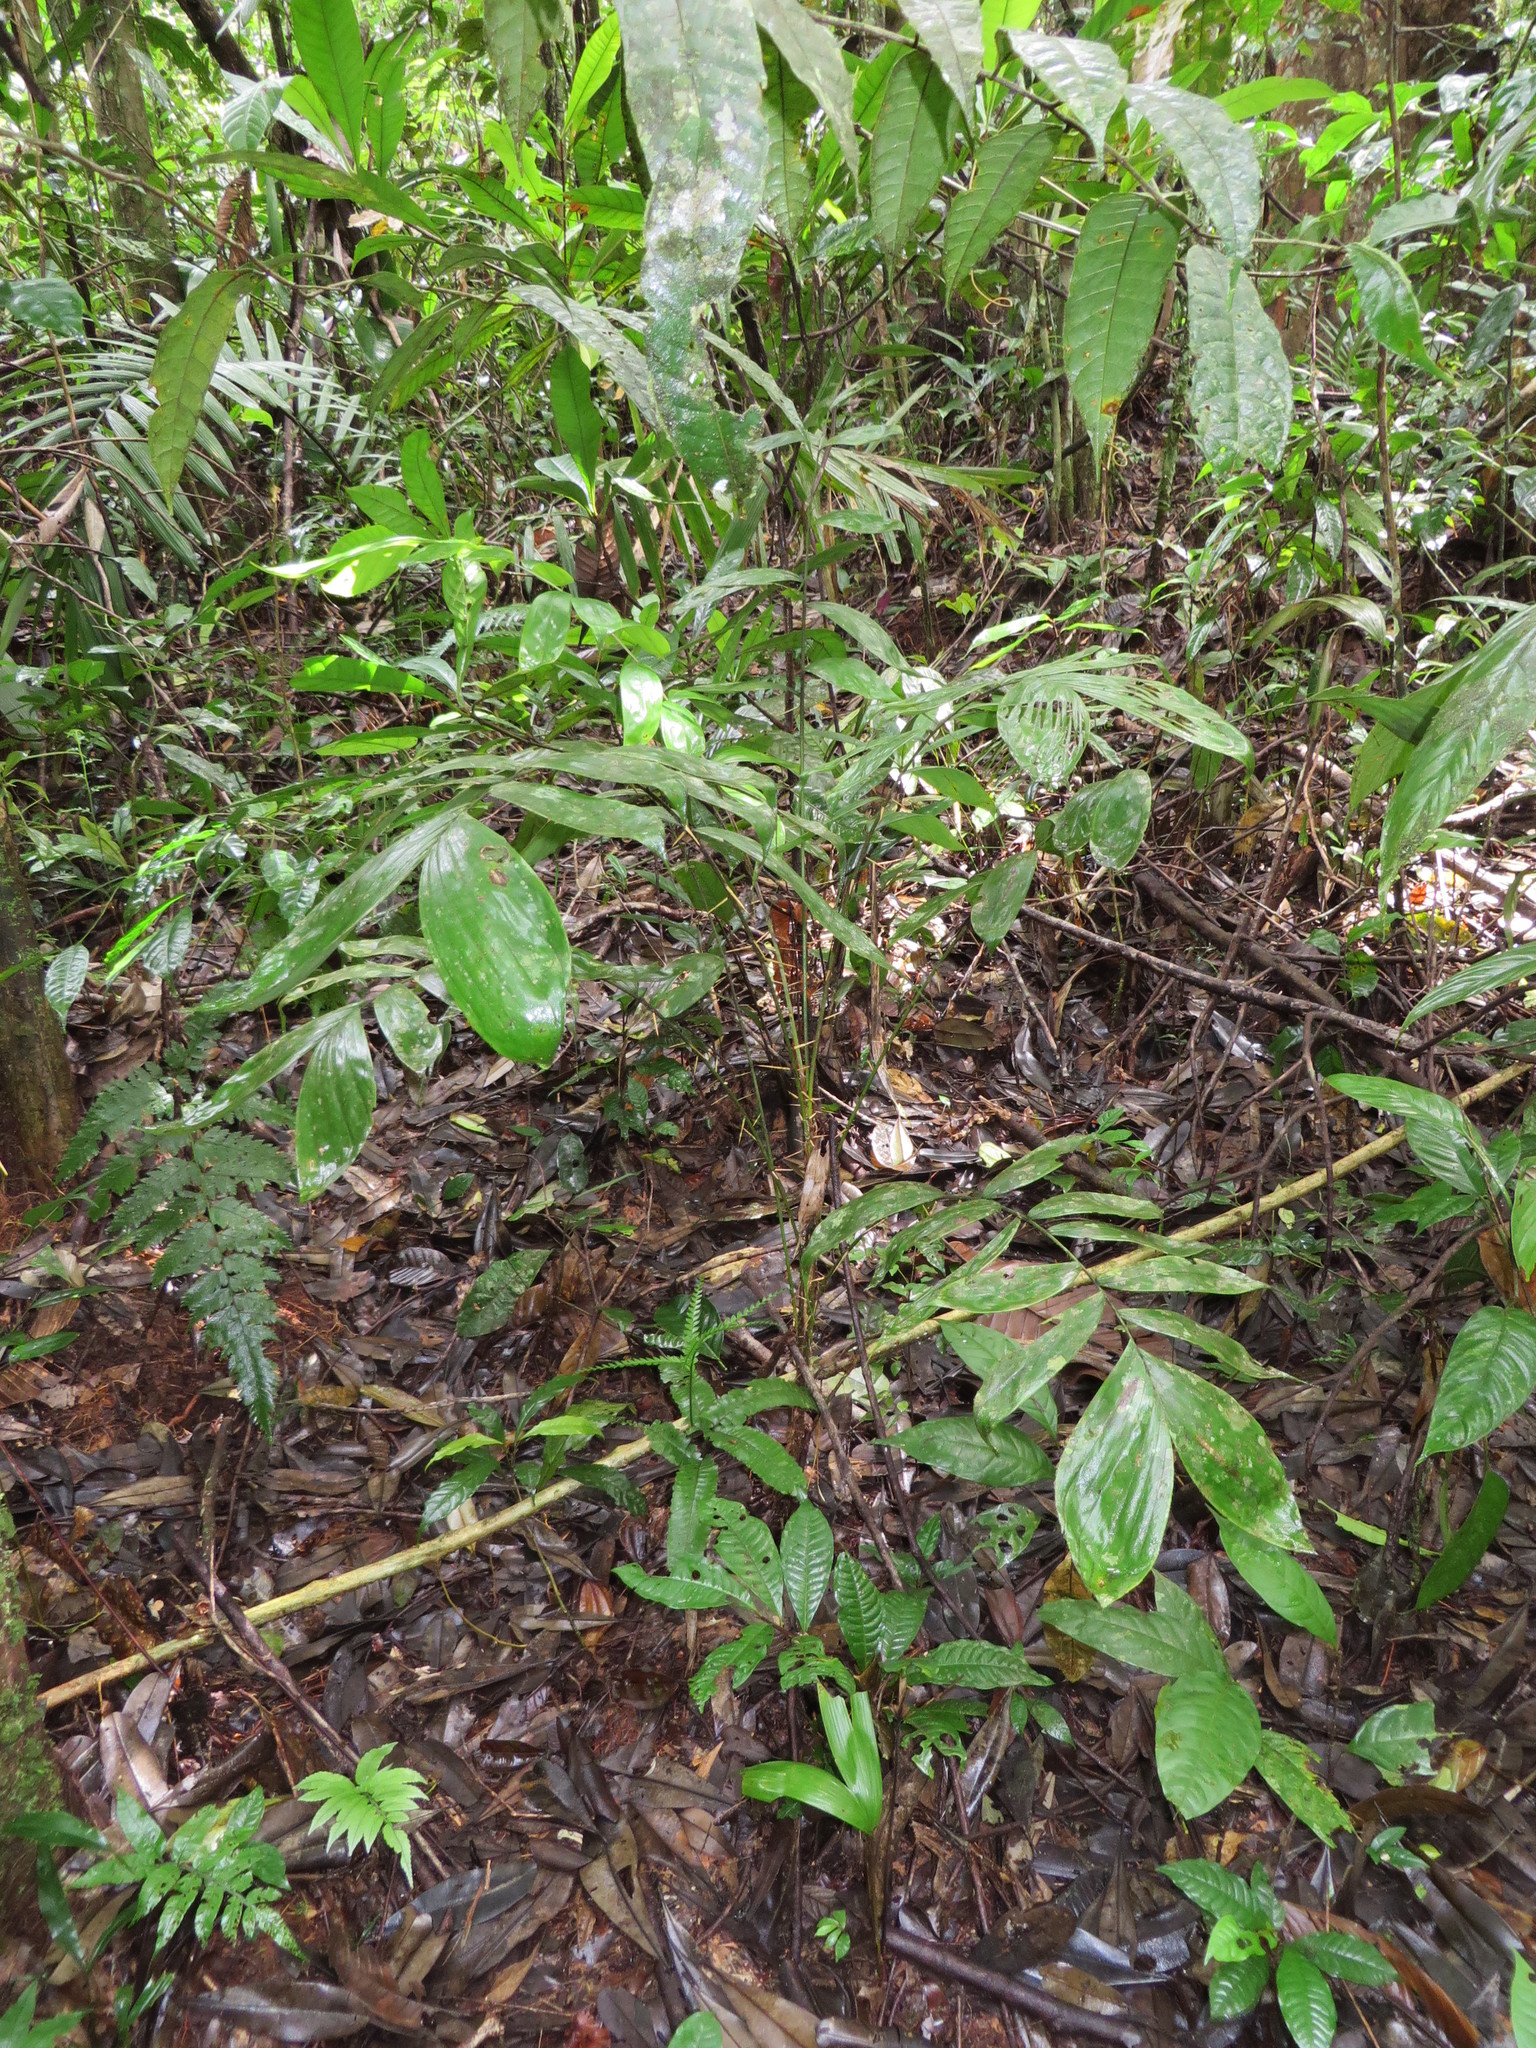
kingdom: Plantae
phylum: Tracheophyta
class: Liliopsida
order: Arecales
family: Arecaceae
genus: Bactris
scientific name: Bactris maraja
